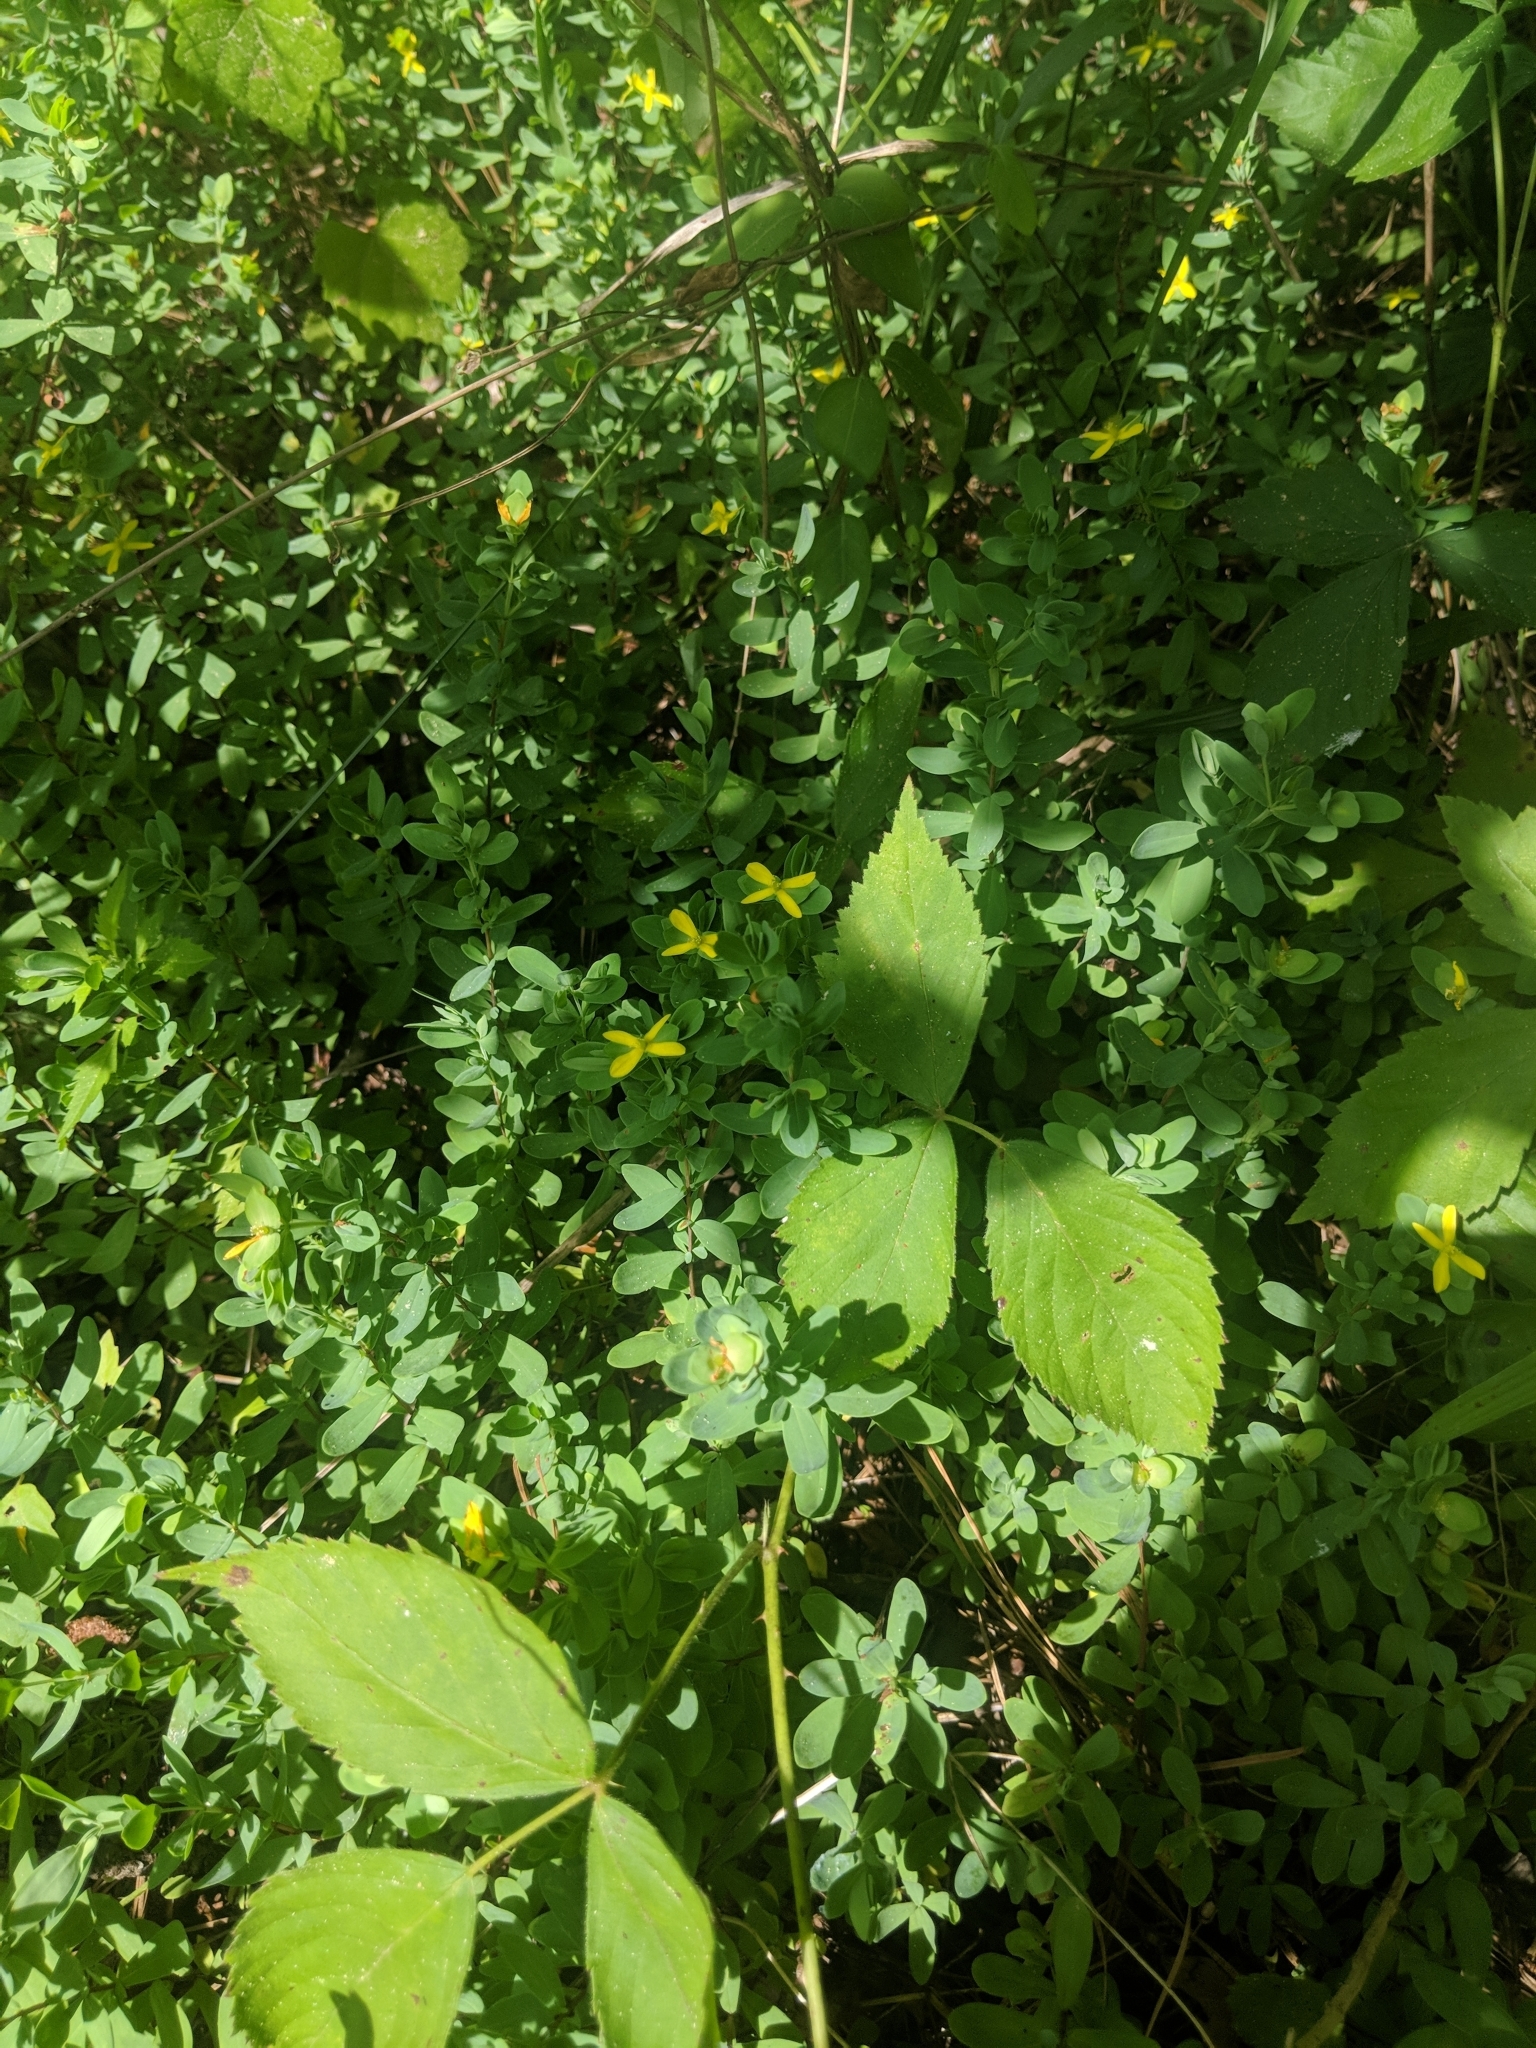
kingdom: Plantae
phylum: Tracheophyta
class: Magnoliopsida
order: Malpighiales
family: Hypericaceae
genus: Hypericum
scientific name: Hypericum hypericoides
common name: St. andrew's cross
